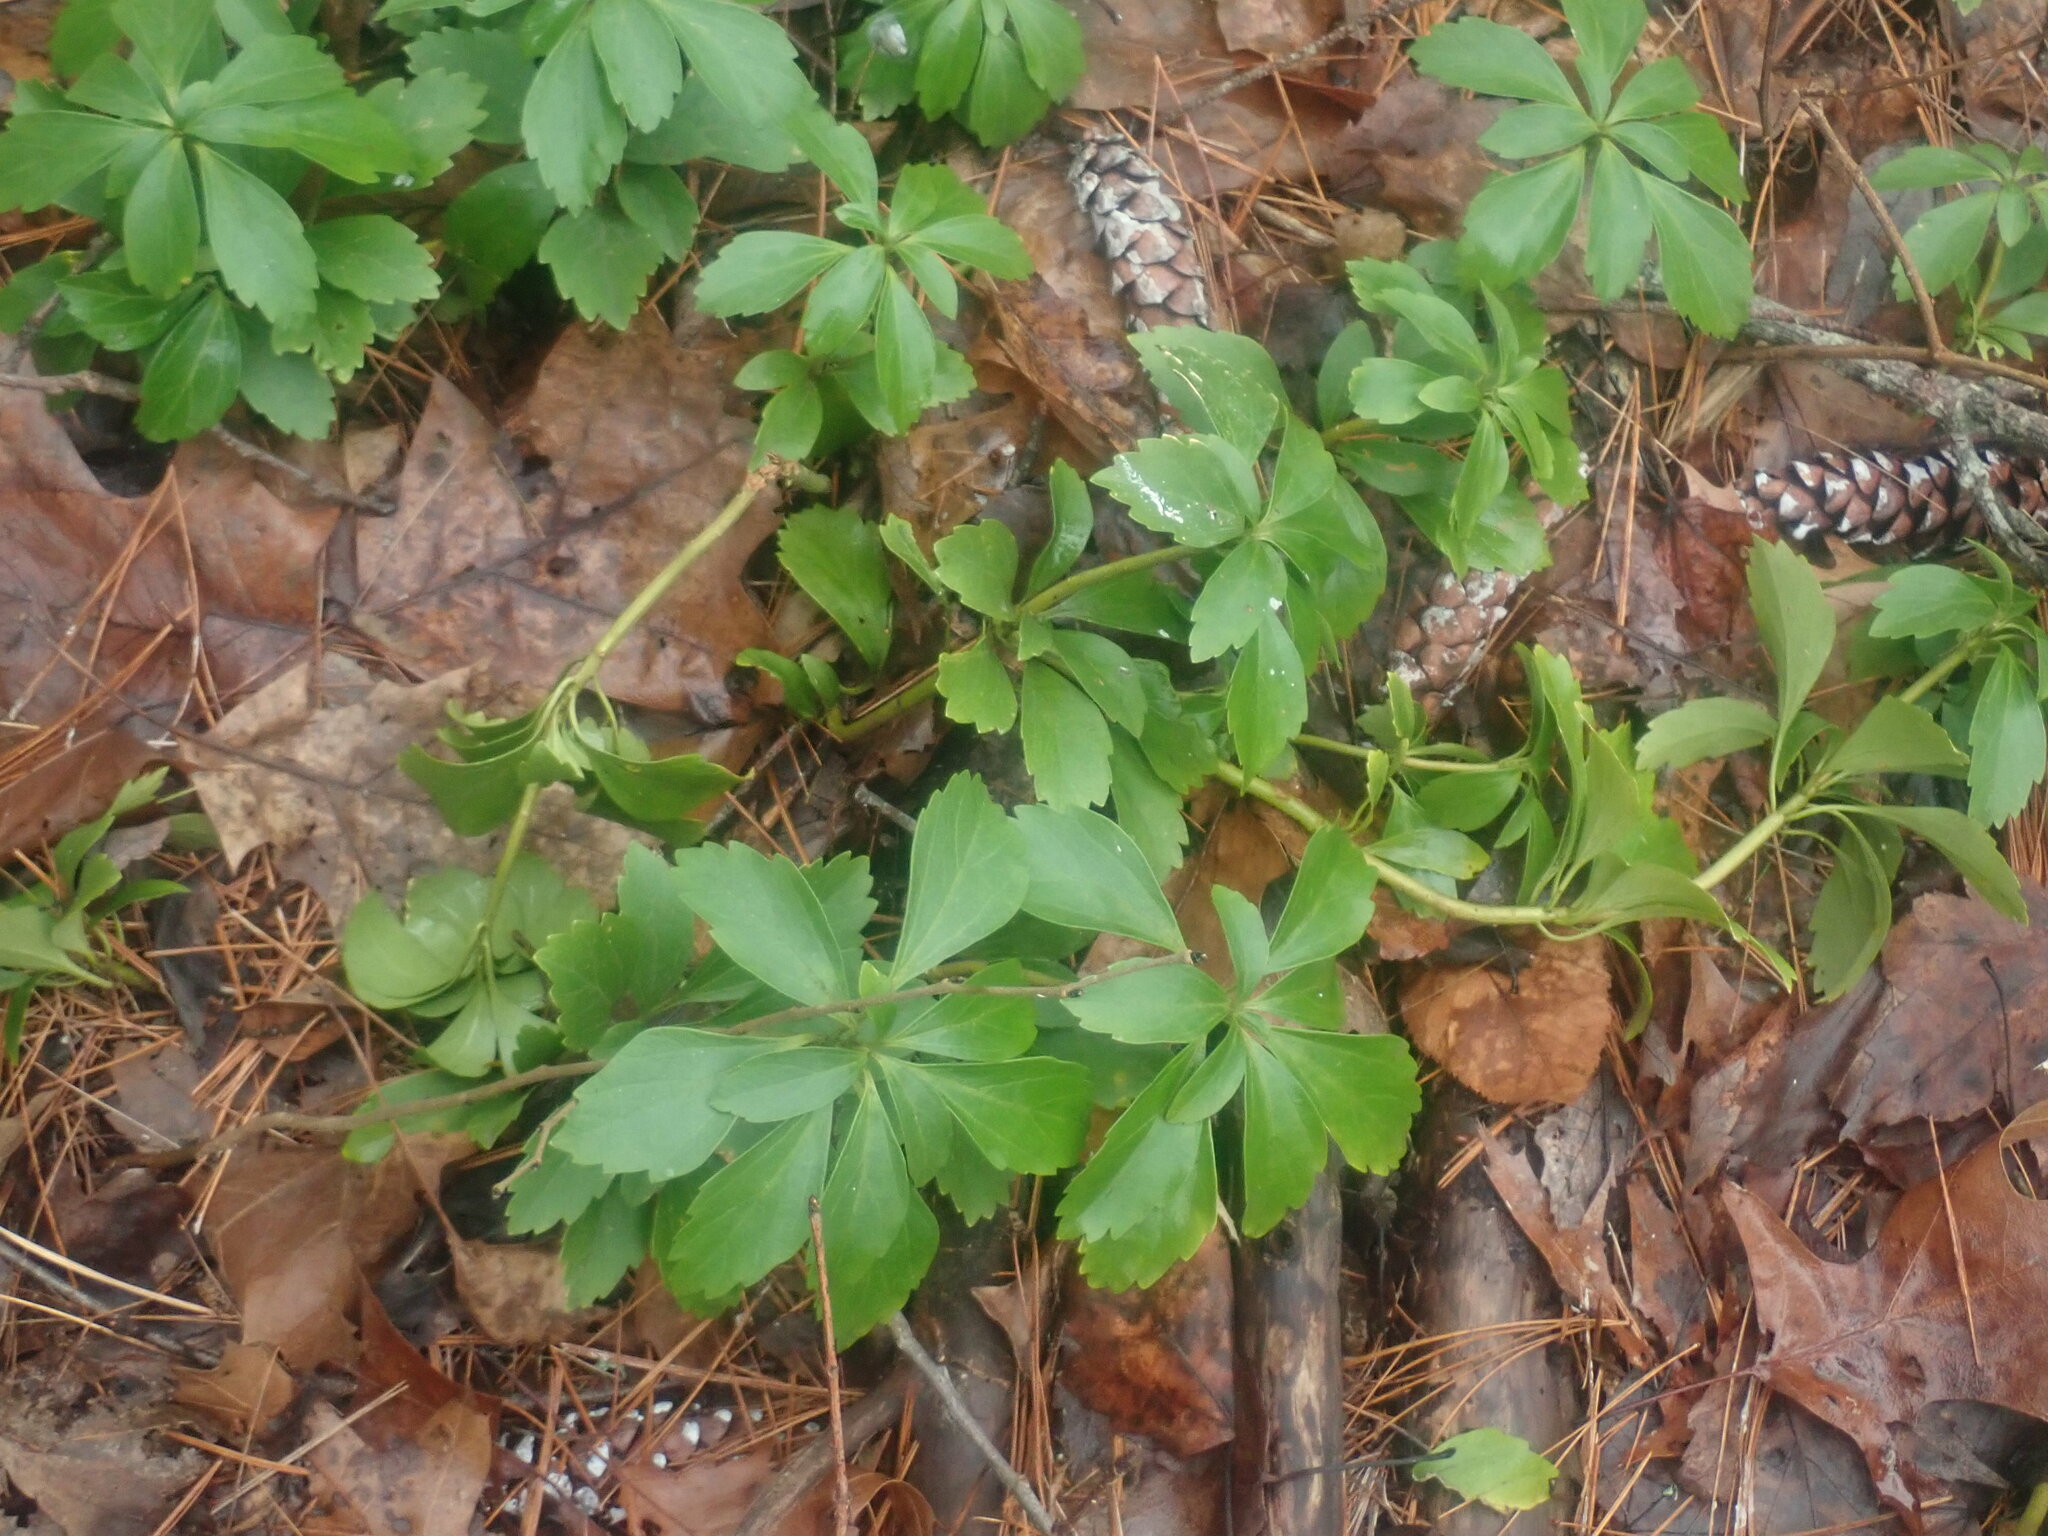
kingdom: Plantae
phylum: Tracheophyta
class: Magnoliopsida
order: Buxales
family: Buxaceae
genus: Pachysandra
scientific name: Pachysandra terminalis
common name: Japanese pachysandra
